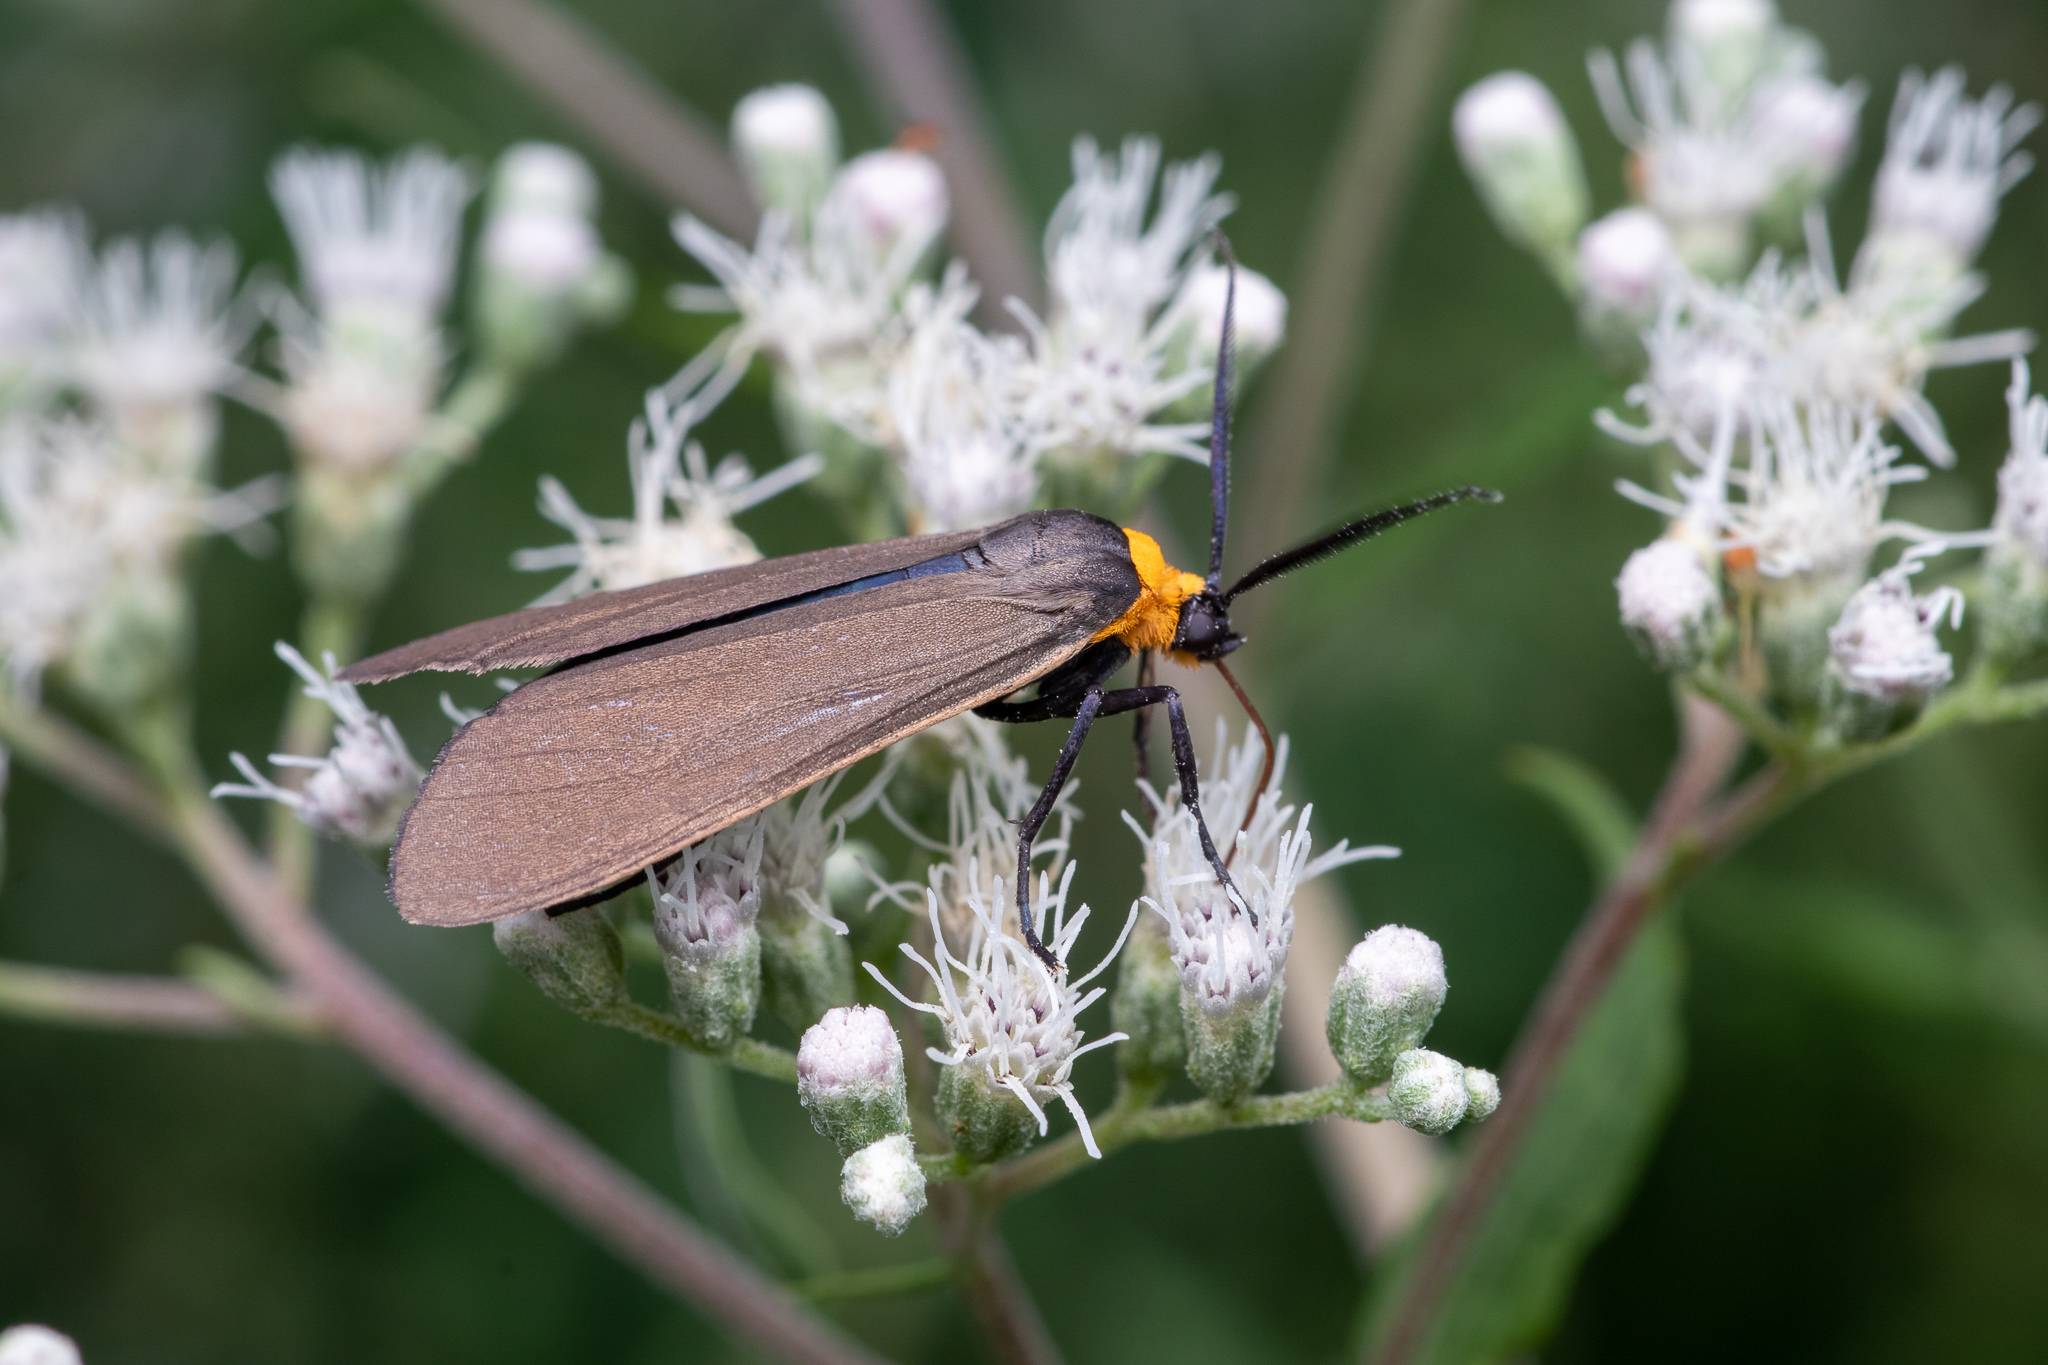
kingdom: Animalia
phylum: Arthropoda
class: Insecta
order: Lepidoptera
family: Erebidae
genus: Cisseps
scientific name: Cisseps fulvicollis
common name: Yellow-collared scape moth
